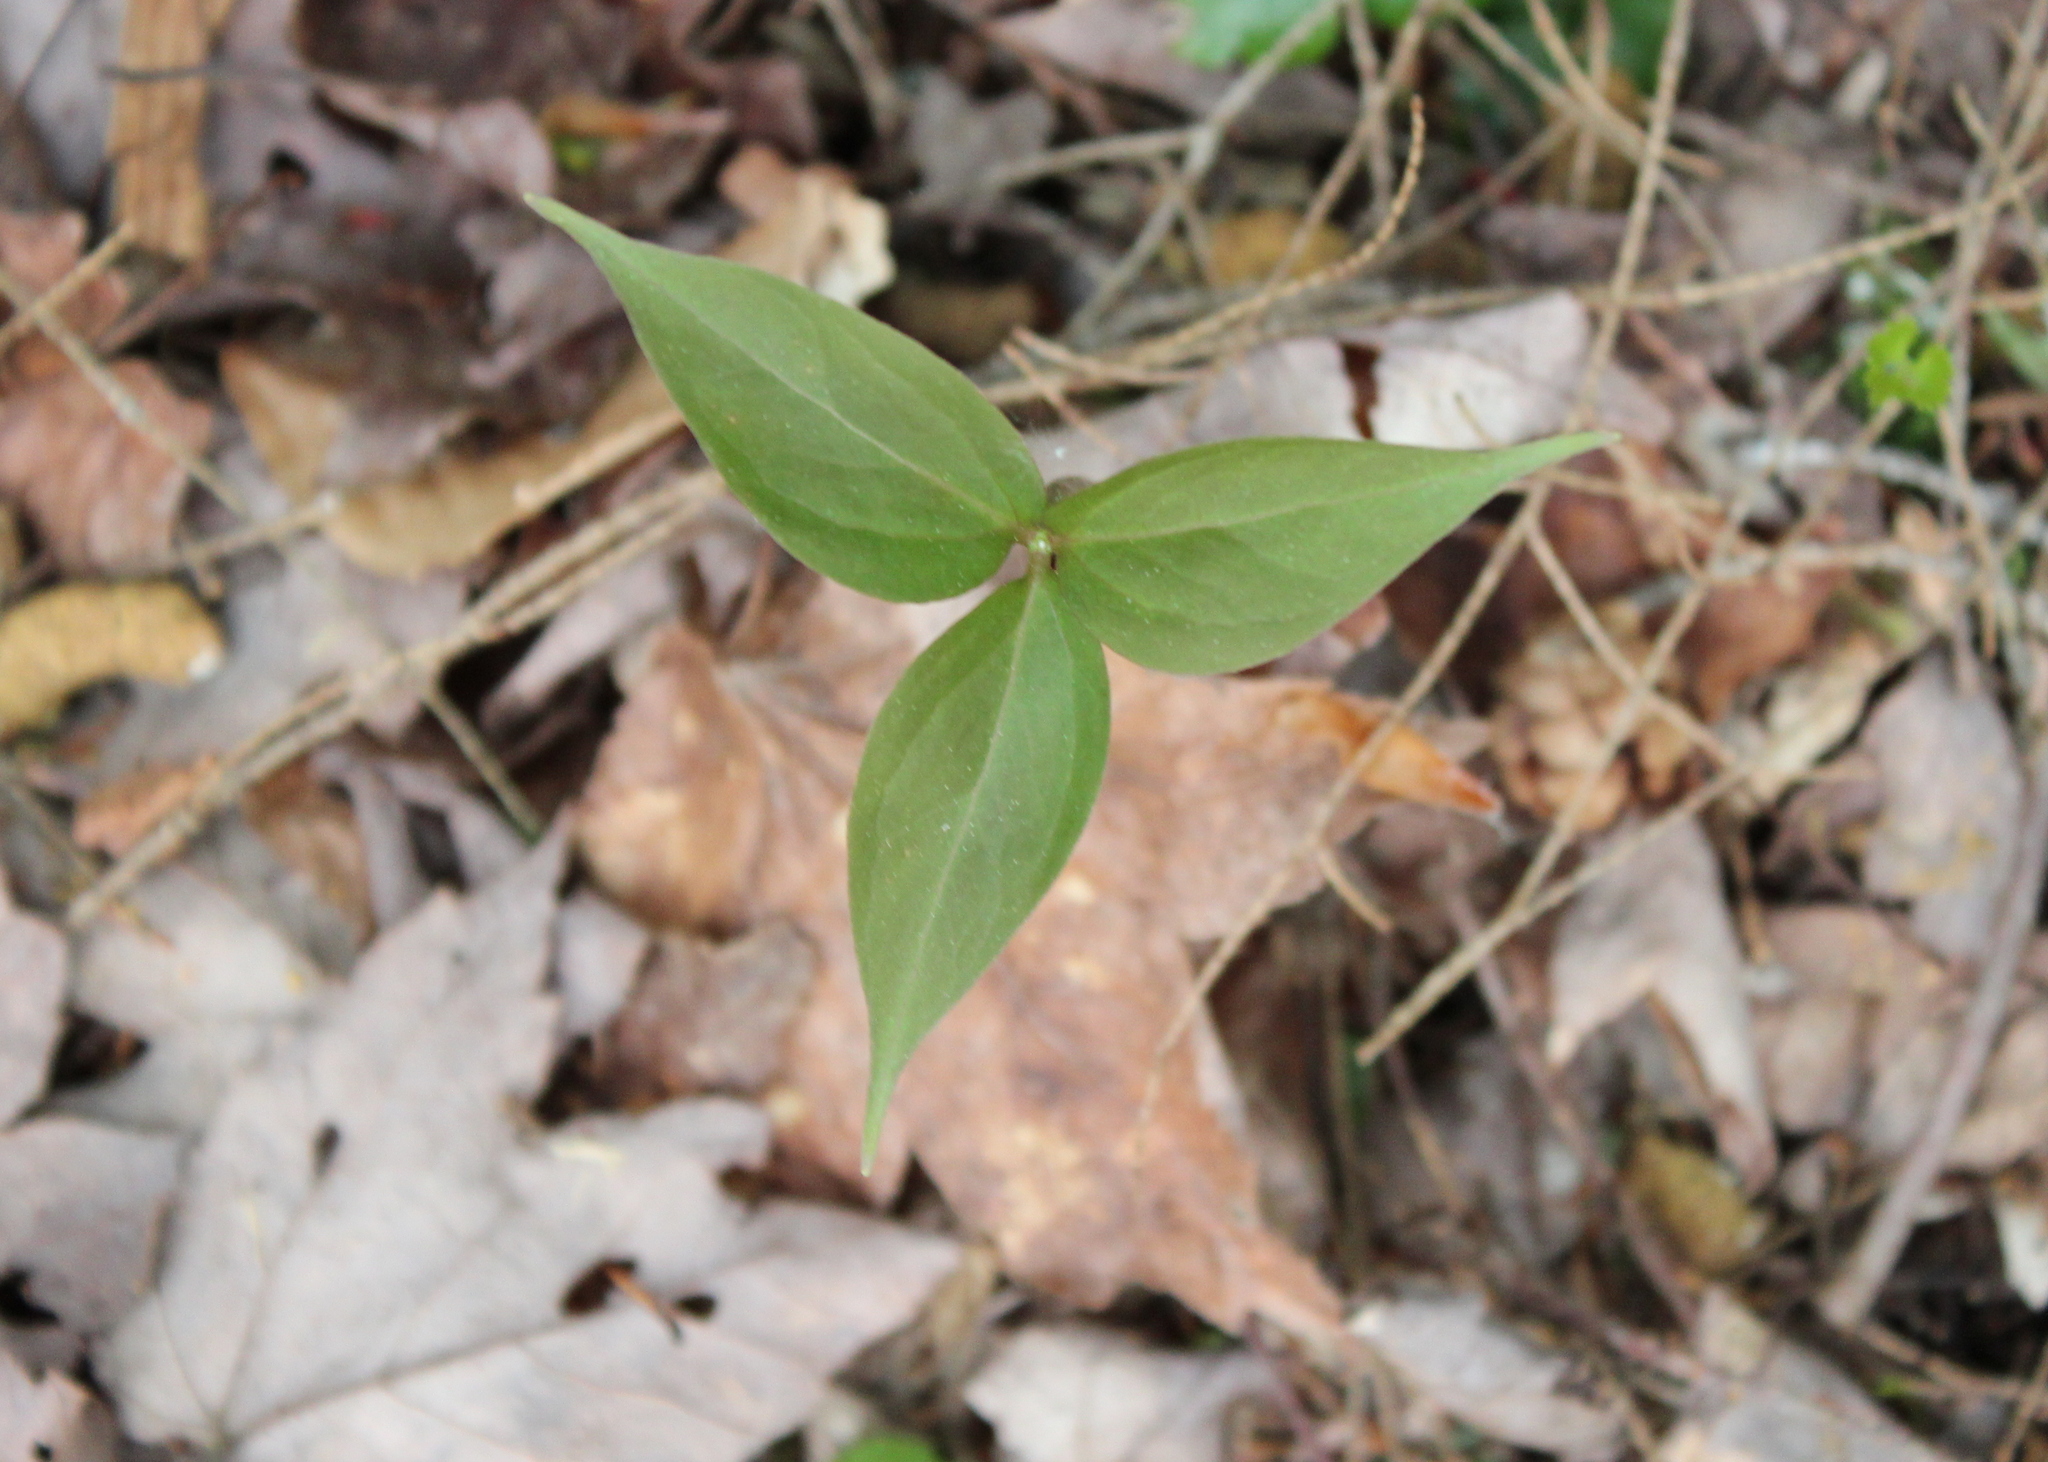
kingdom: Plantae
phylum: Tracheophyta
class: Liliopsida
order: Liliales
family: Melanthiaceae
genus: Trillium
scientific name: Trillium undulatum
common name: Paint trillium
